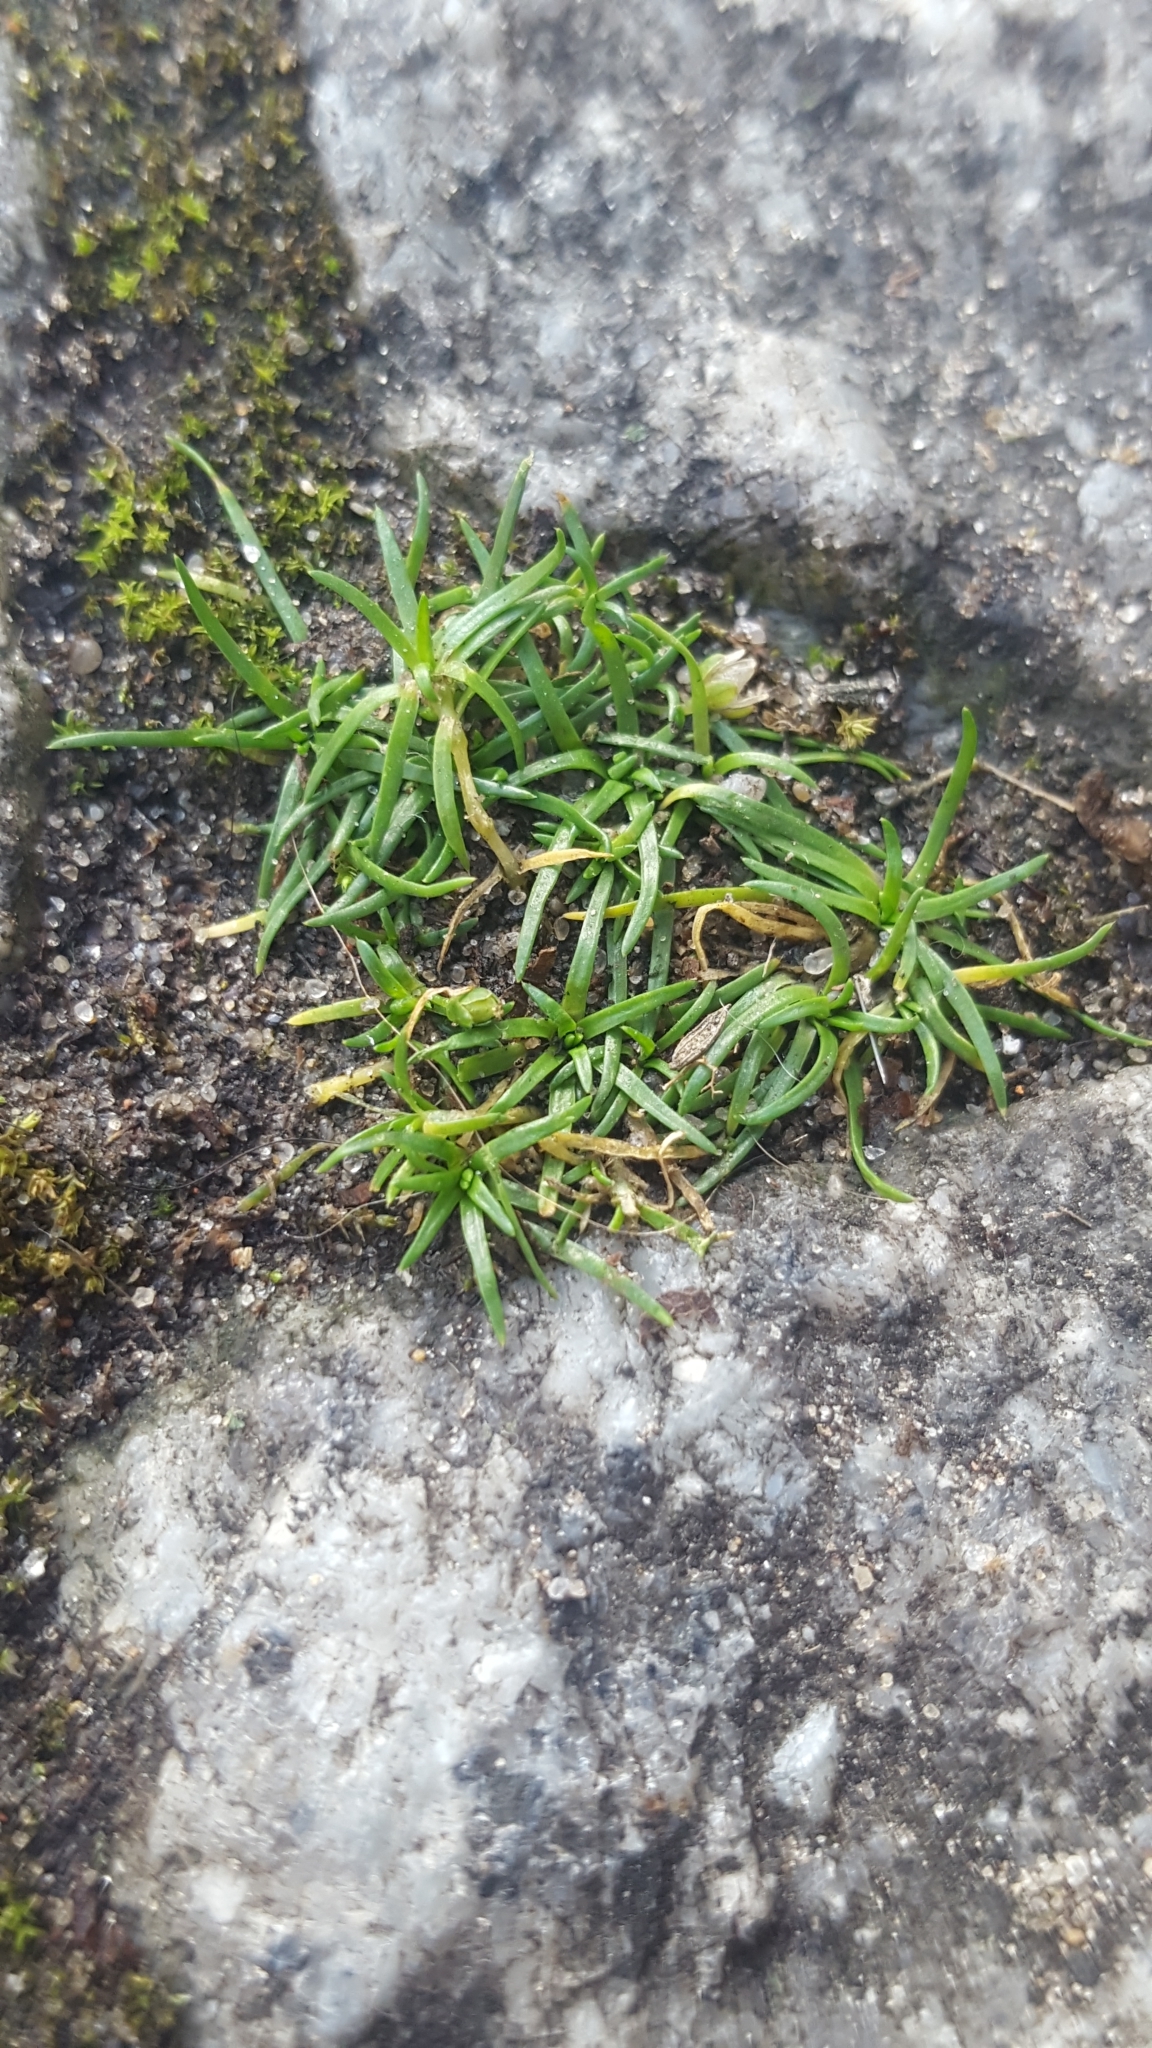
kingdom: Plantae
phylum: Tracheophyta
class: Magnoliopsida
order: Caryophyllales
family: Caryophyllaceae
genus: Sagina
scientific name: Sagina procumbens
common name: Procumbent pearlwort
